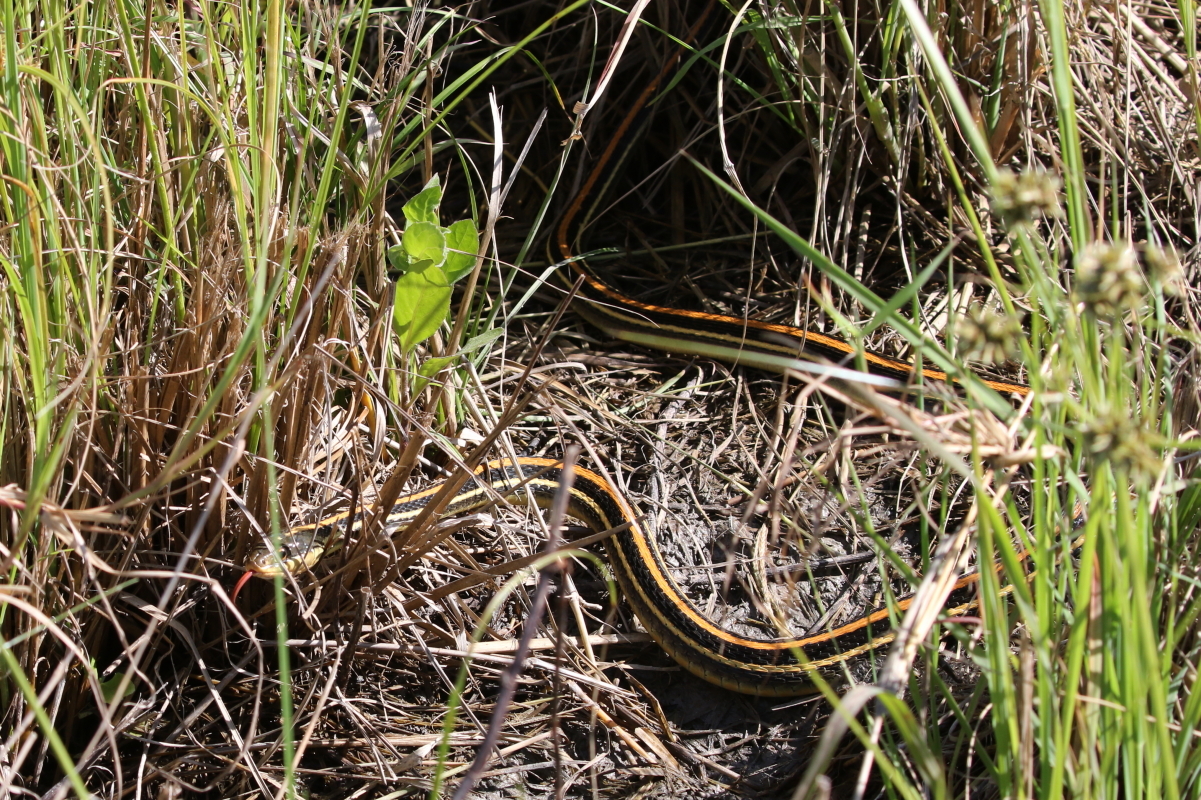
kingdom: Animalia
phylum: Chordata
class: Squamata
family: Colubridae
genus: Thamnophis
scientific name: Thamnophis proximus
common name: Western ribbon snake
